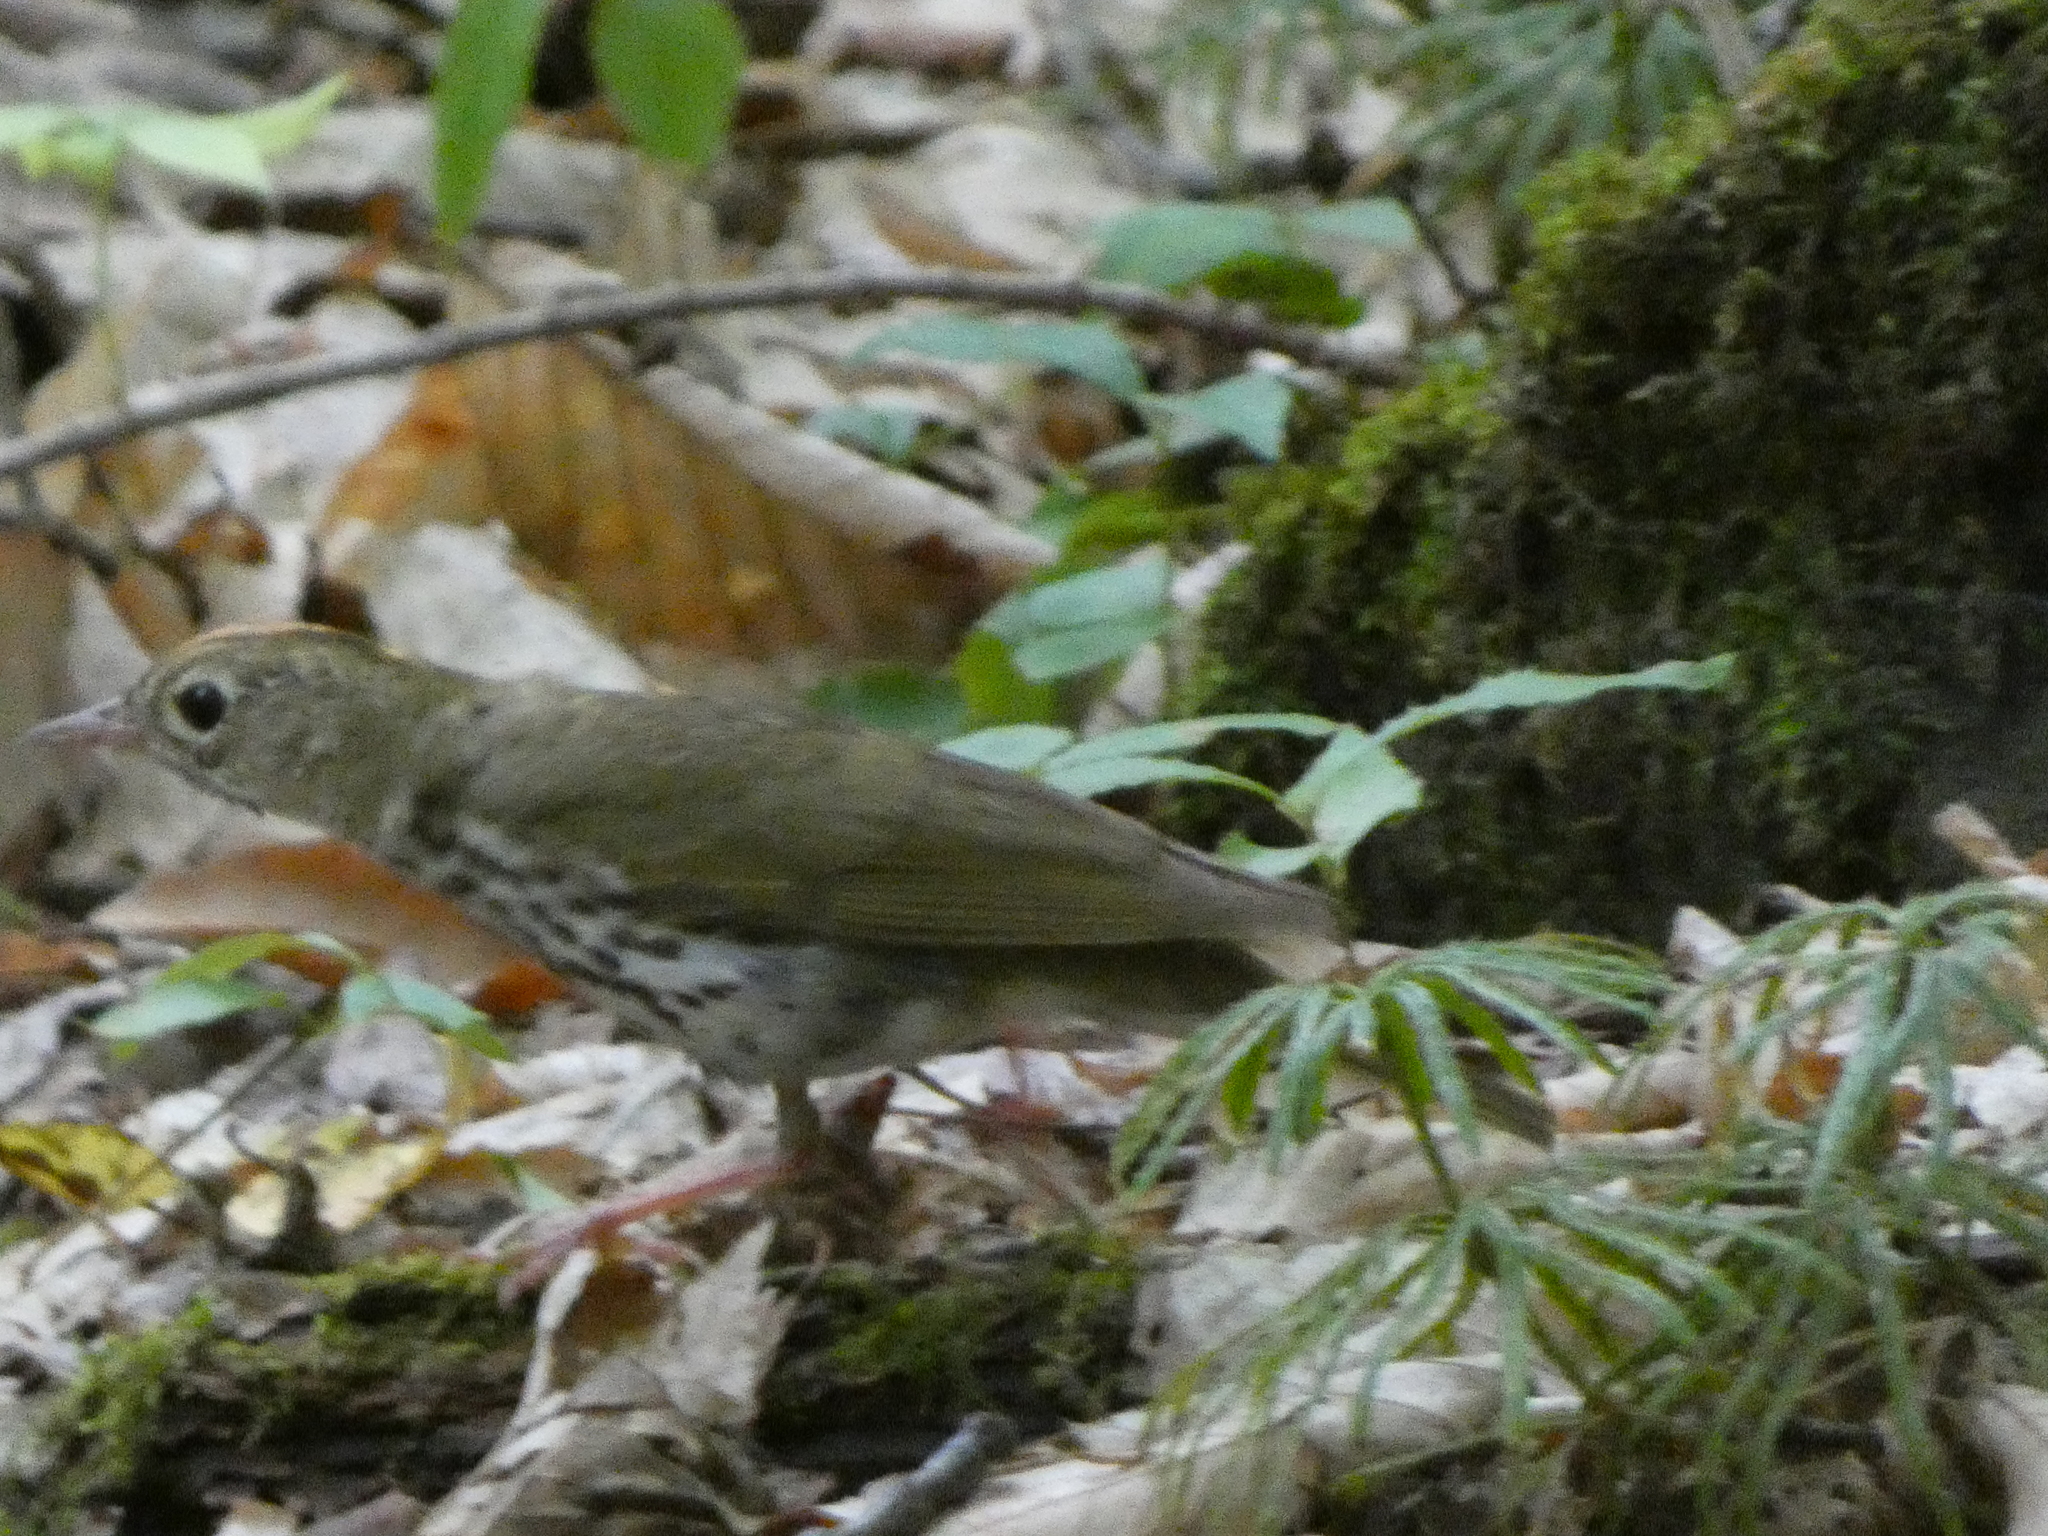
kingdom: Animalia
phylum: Chordata
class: Aves
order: Passeriformes
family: Parulidae
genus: Seiurus
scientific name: Seiurus aurocapilla
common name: Ovenbird
